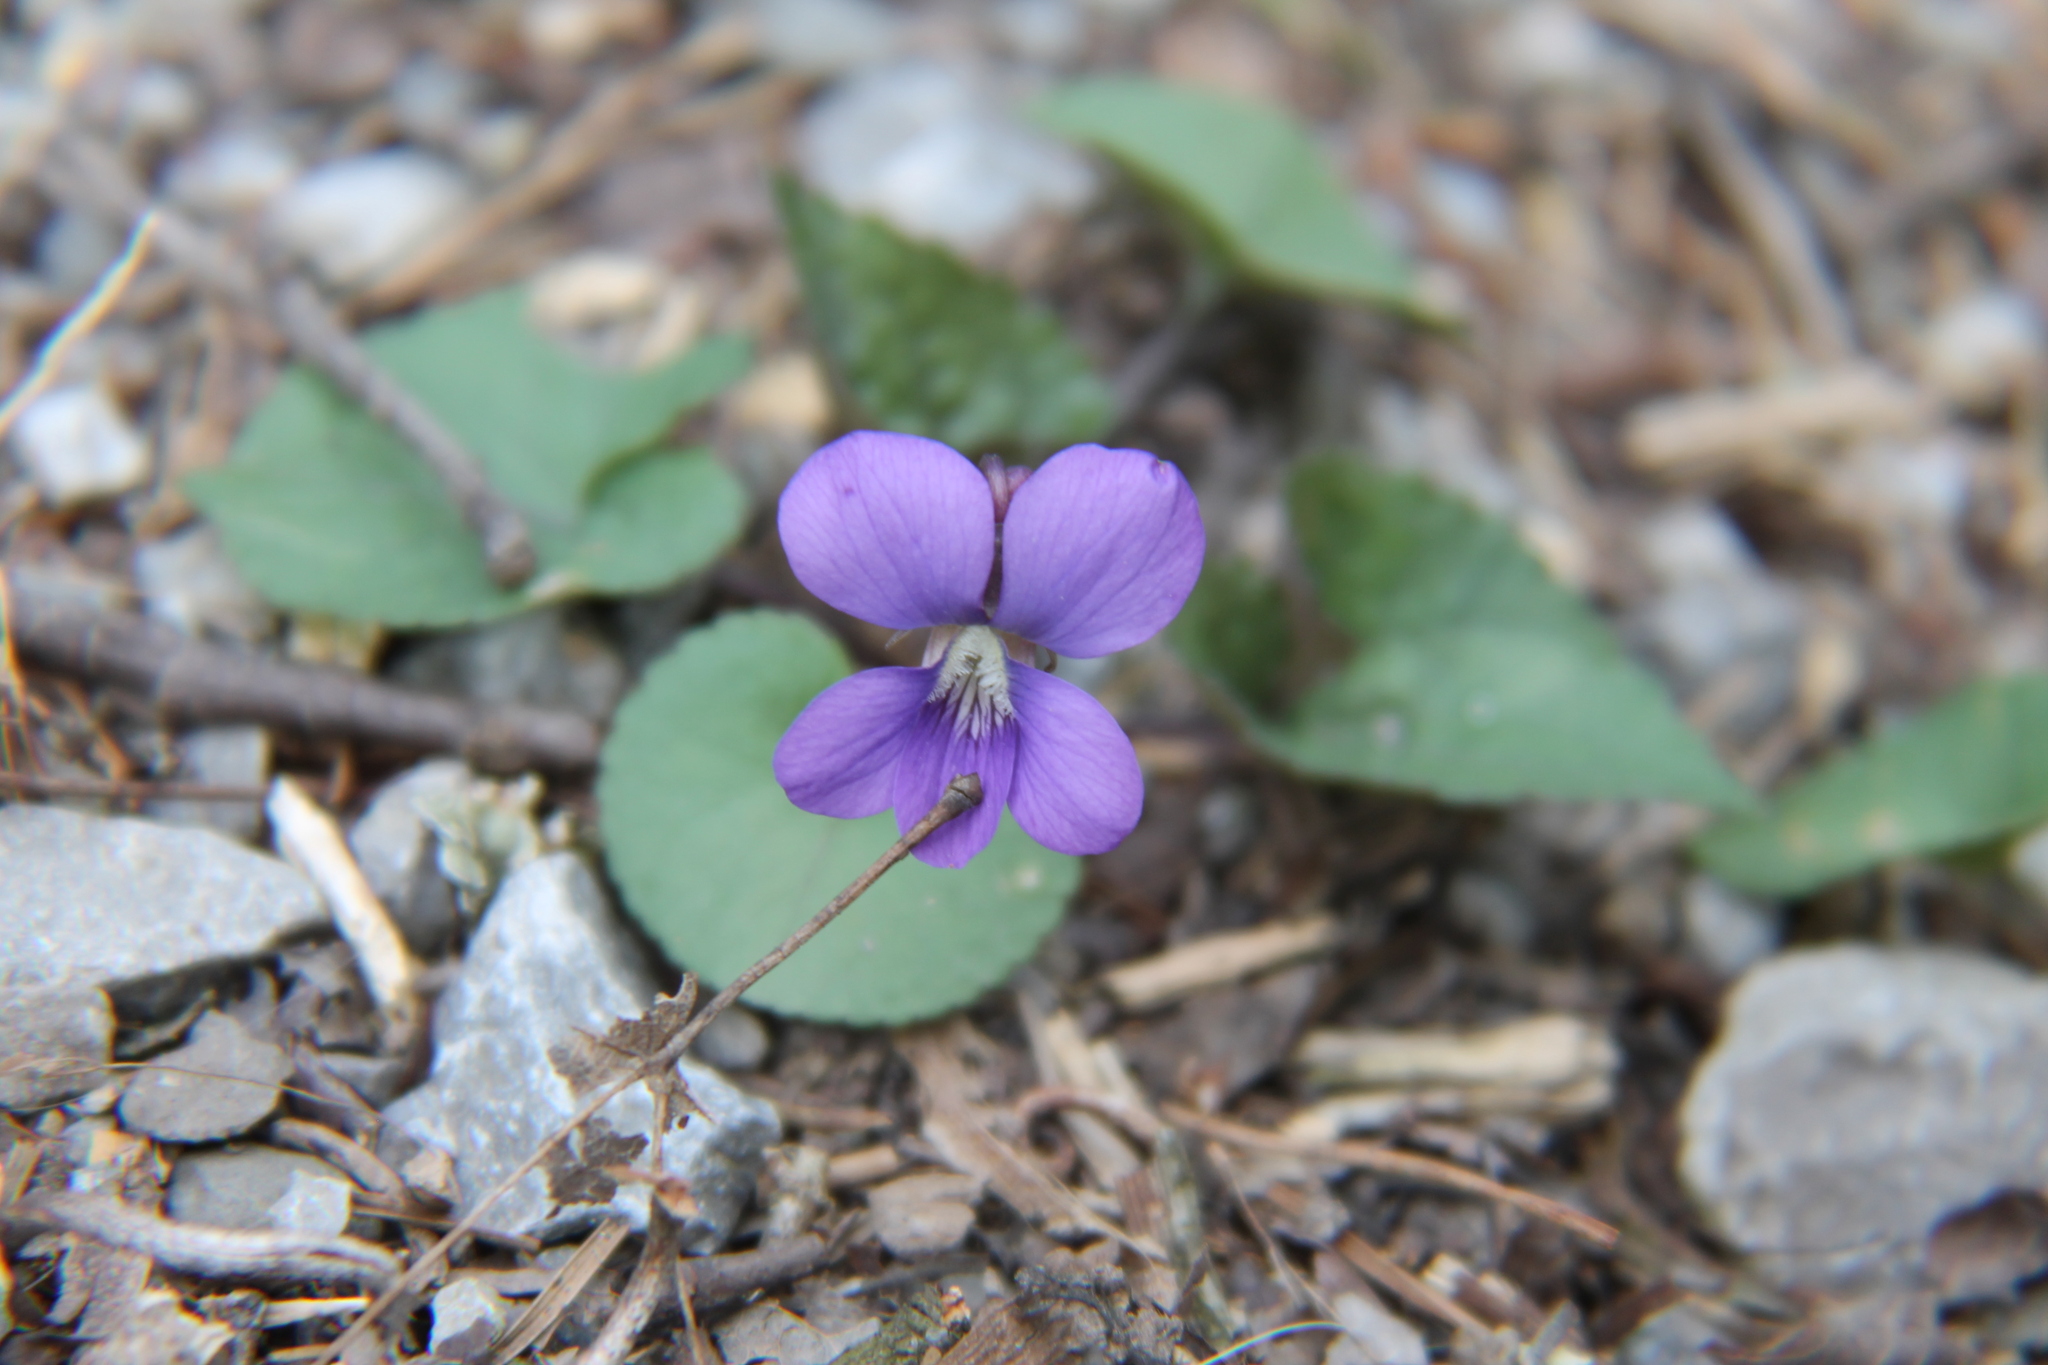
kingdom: Plantae
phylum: Tracheophyta
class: Magnoliopsida
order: Malpighiales
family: Violaceae
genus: Viola
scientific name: Viola sororia
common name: Dooryard violet
